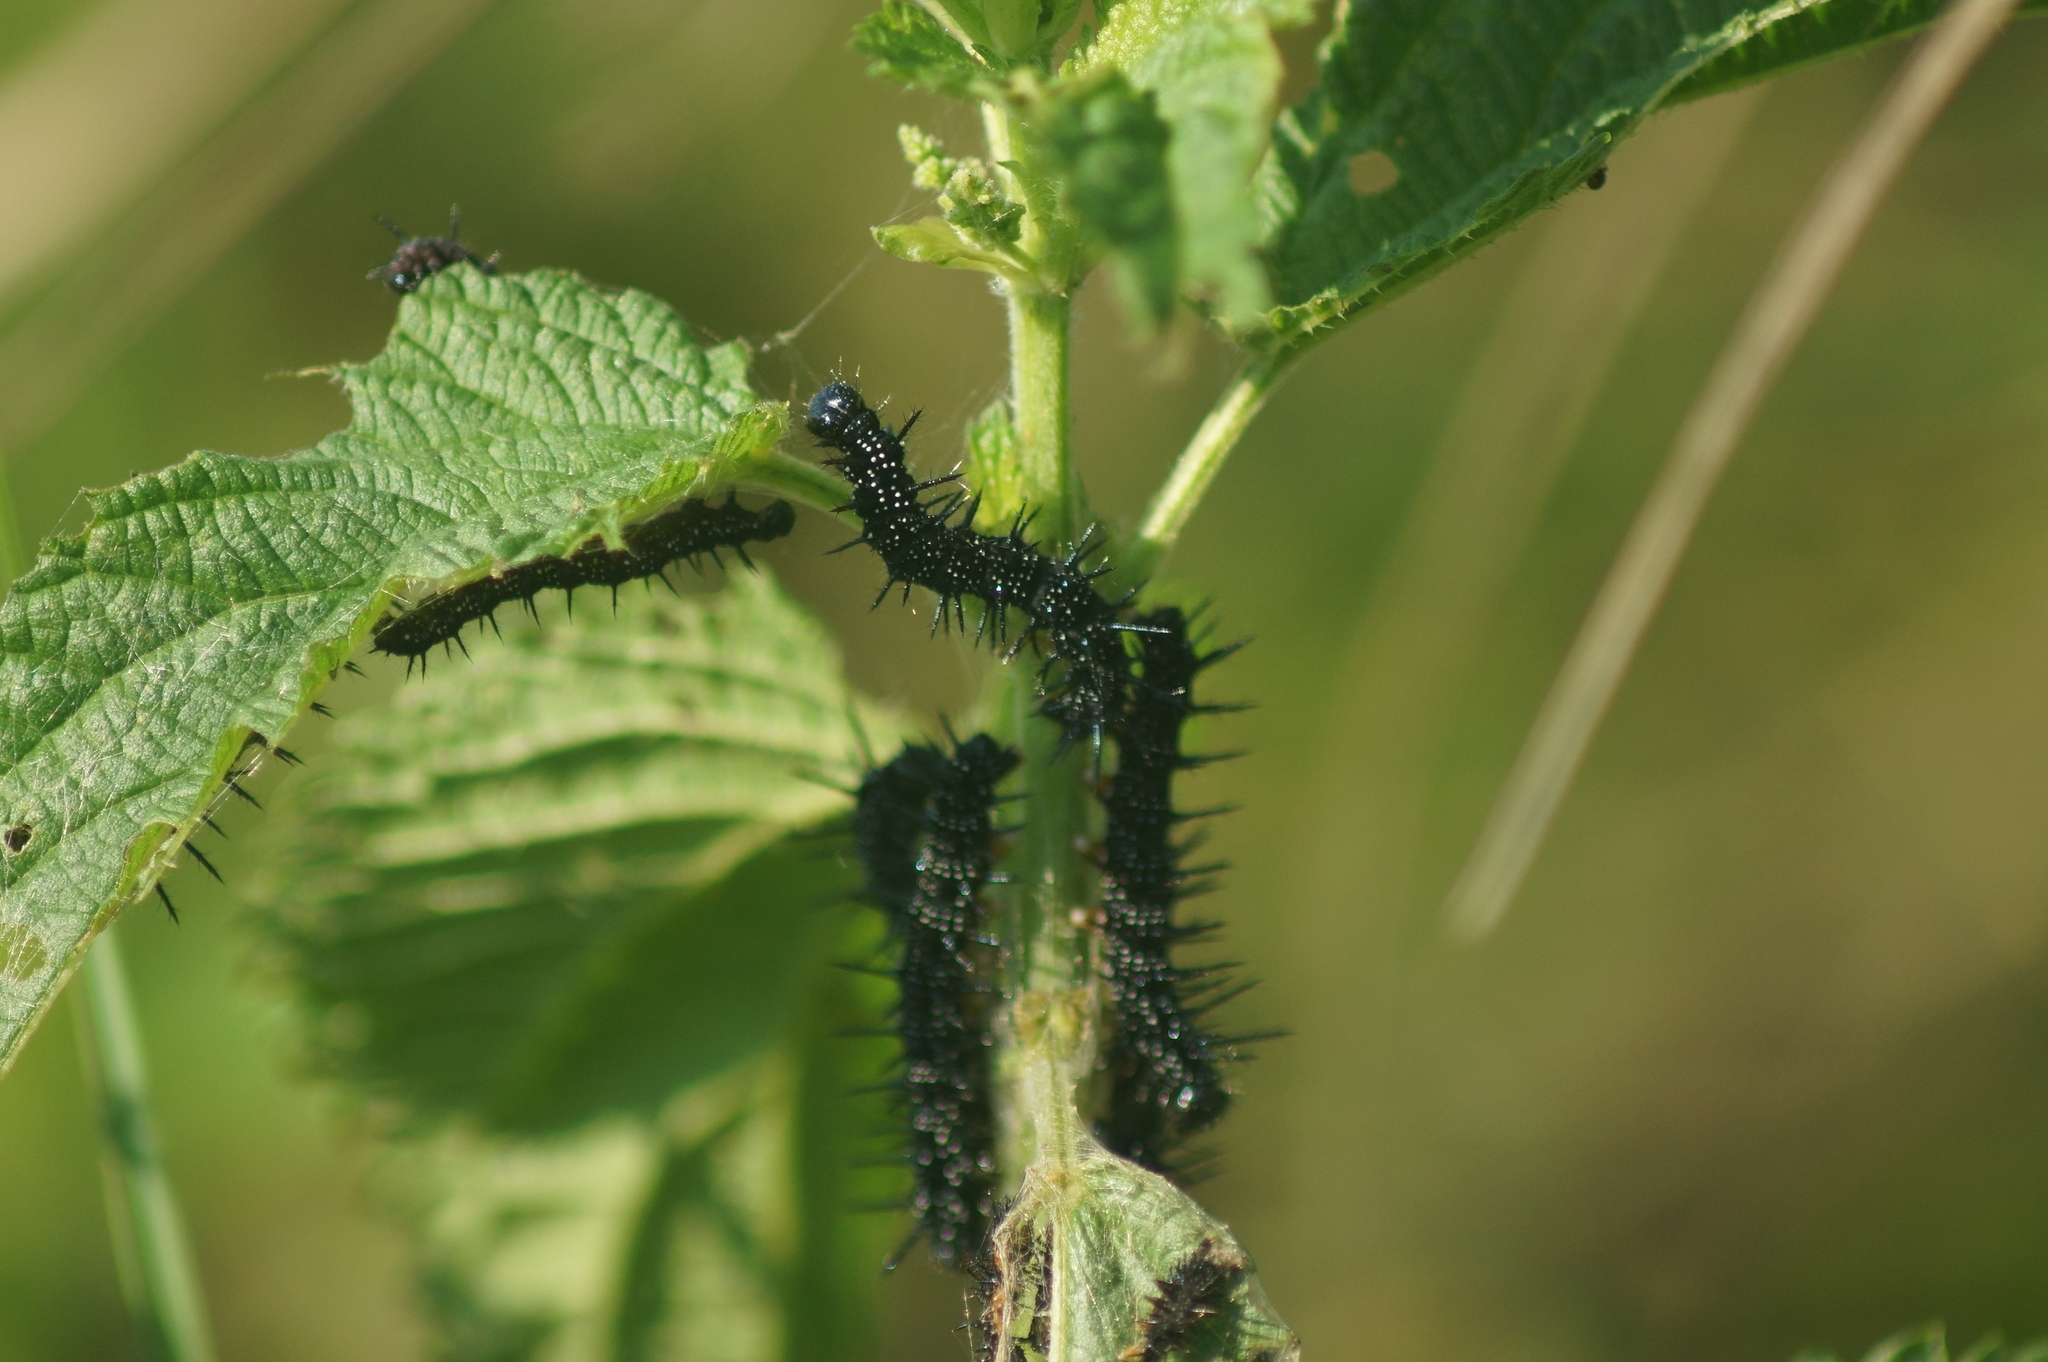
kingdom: Animalia
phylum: Arthropoda
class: Insecta
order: Lepidoptera
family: Nymphalidae
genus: Aglais
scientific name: Aglais io
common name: Peacock
